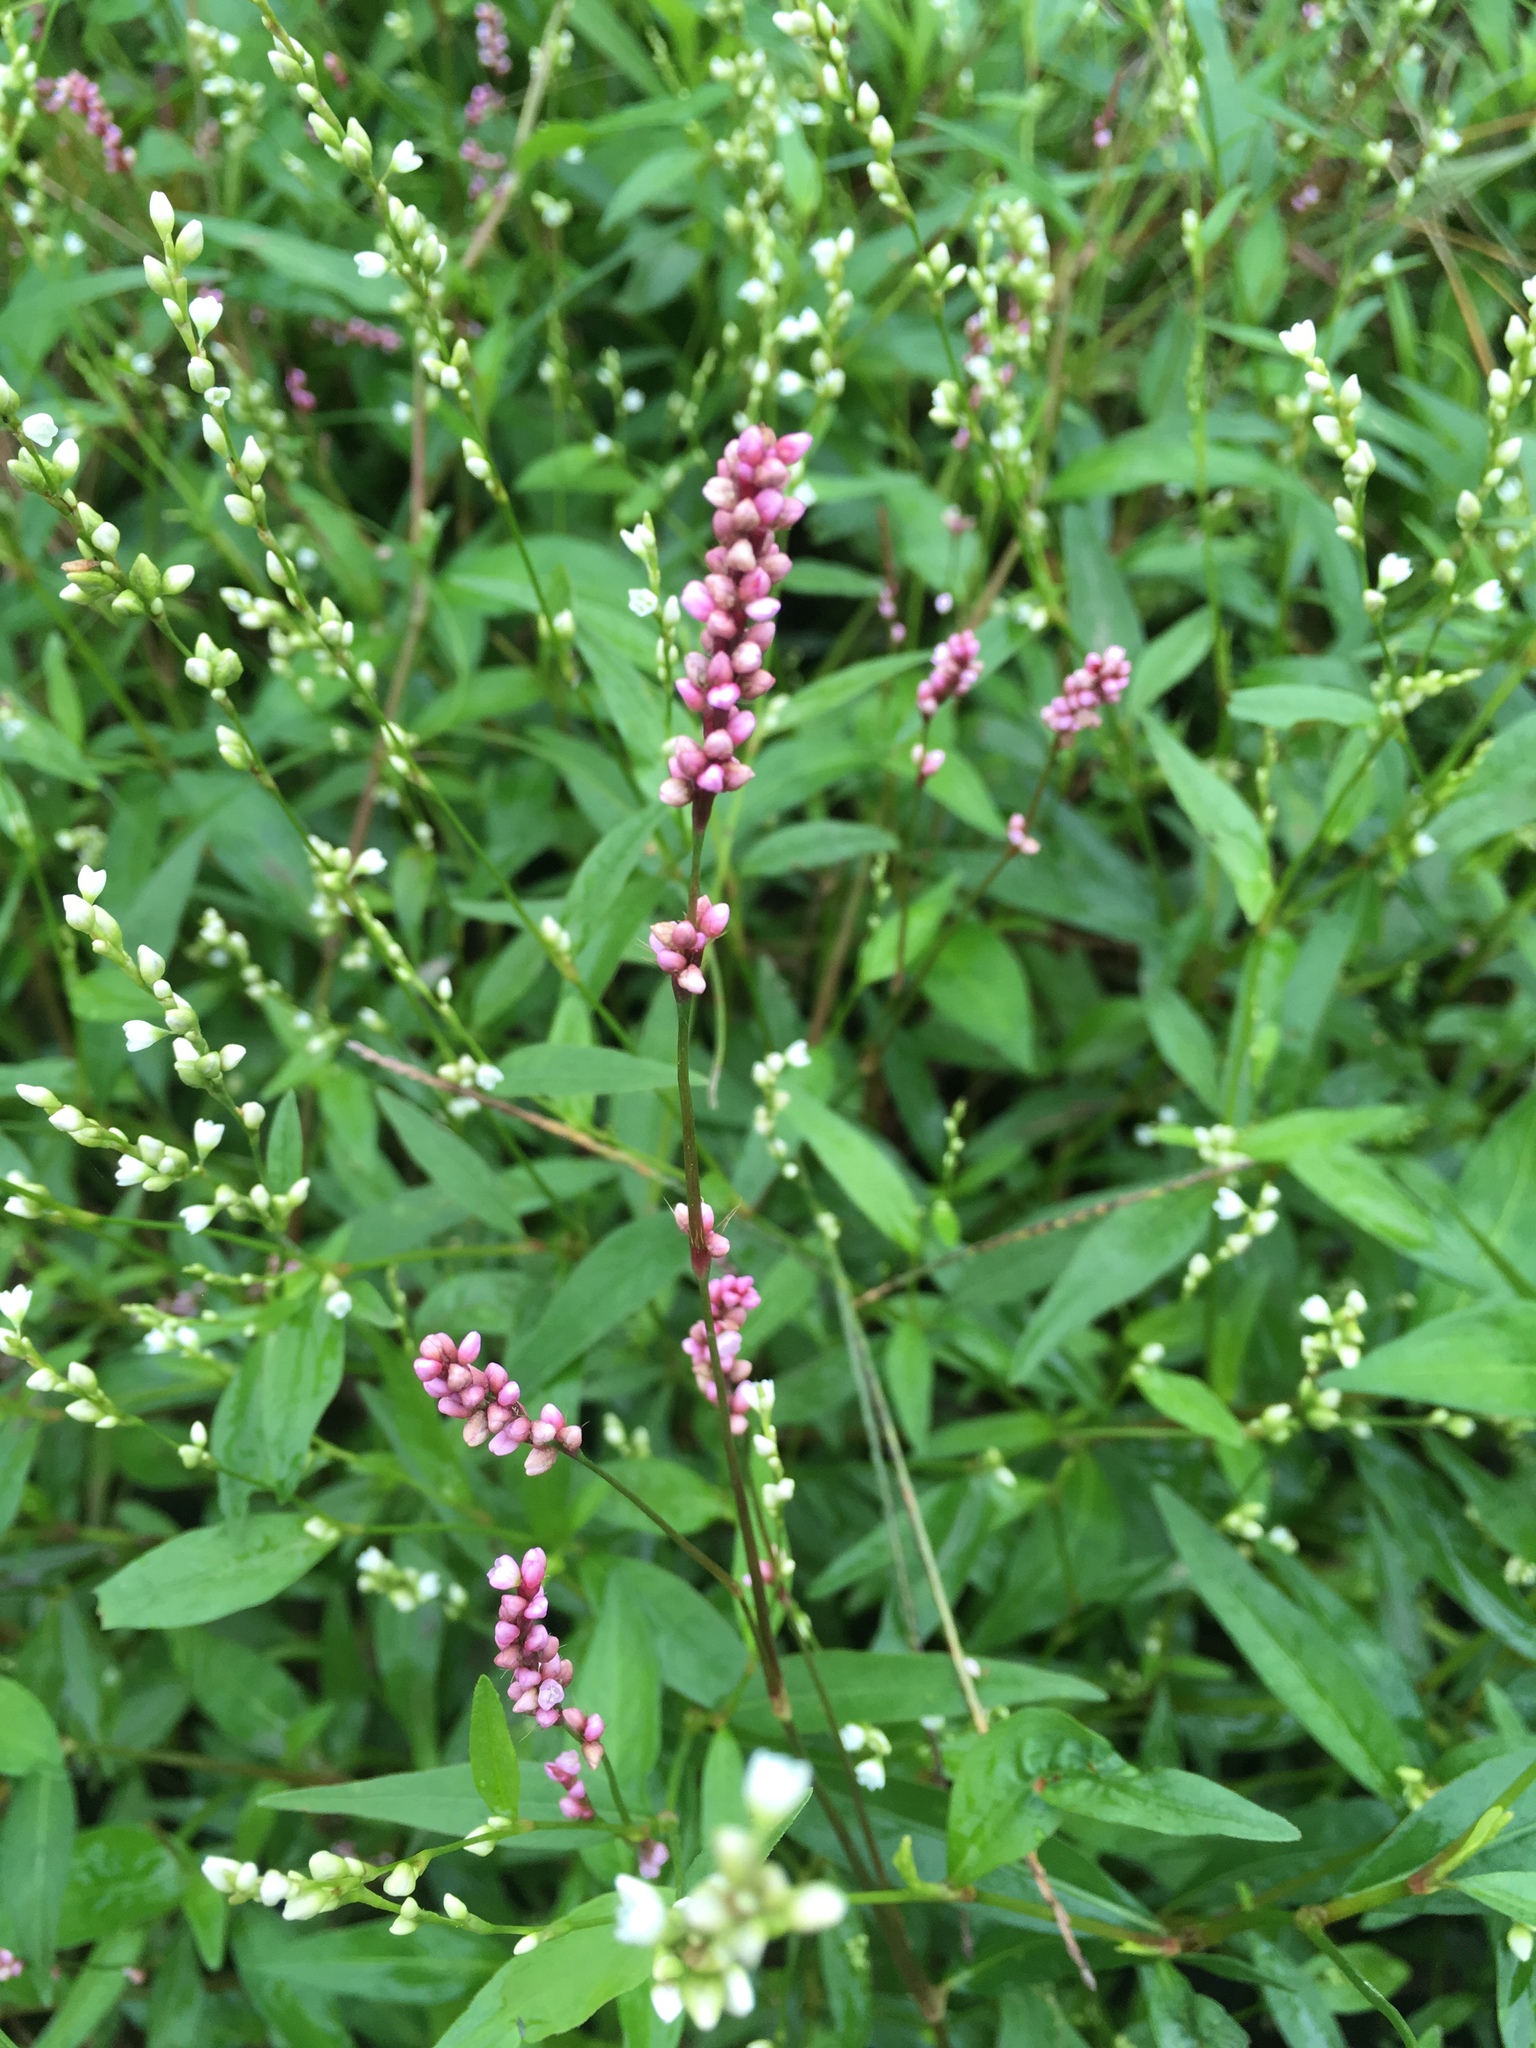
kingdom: Plantae
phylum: Tracheophyta
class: Magnoliopsida
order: Caryophyllales
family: Polygonaceae
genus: Persicaria
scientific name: Persicaria longiseta
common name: Bristly lady's-thumb
